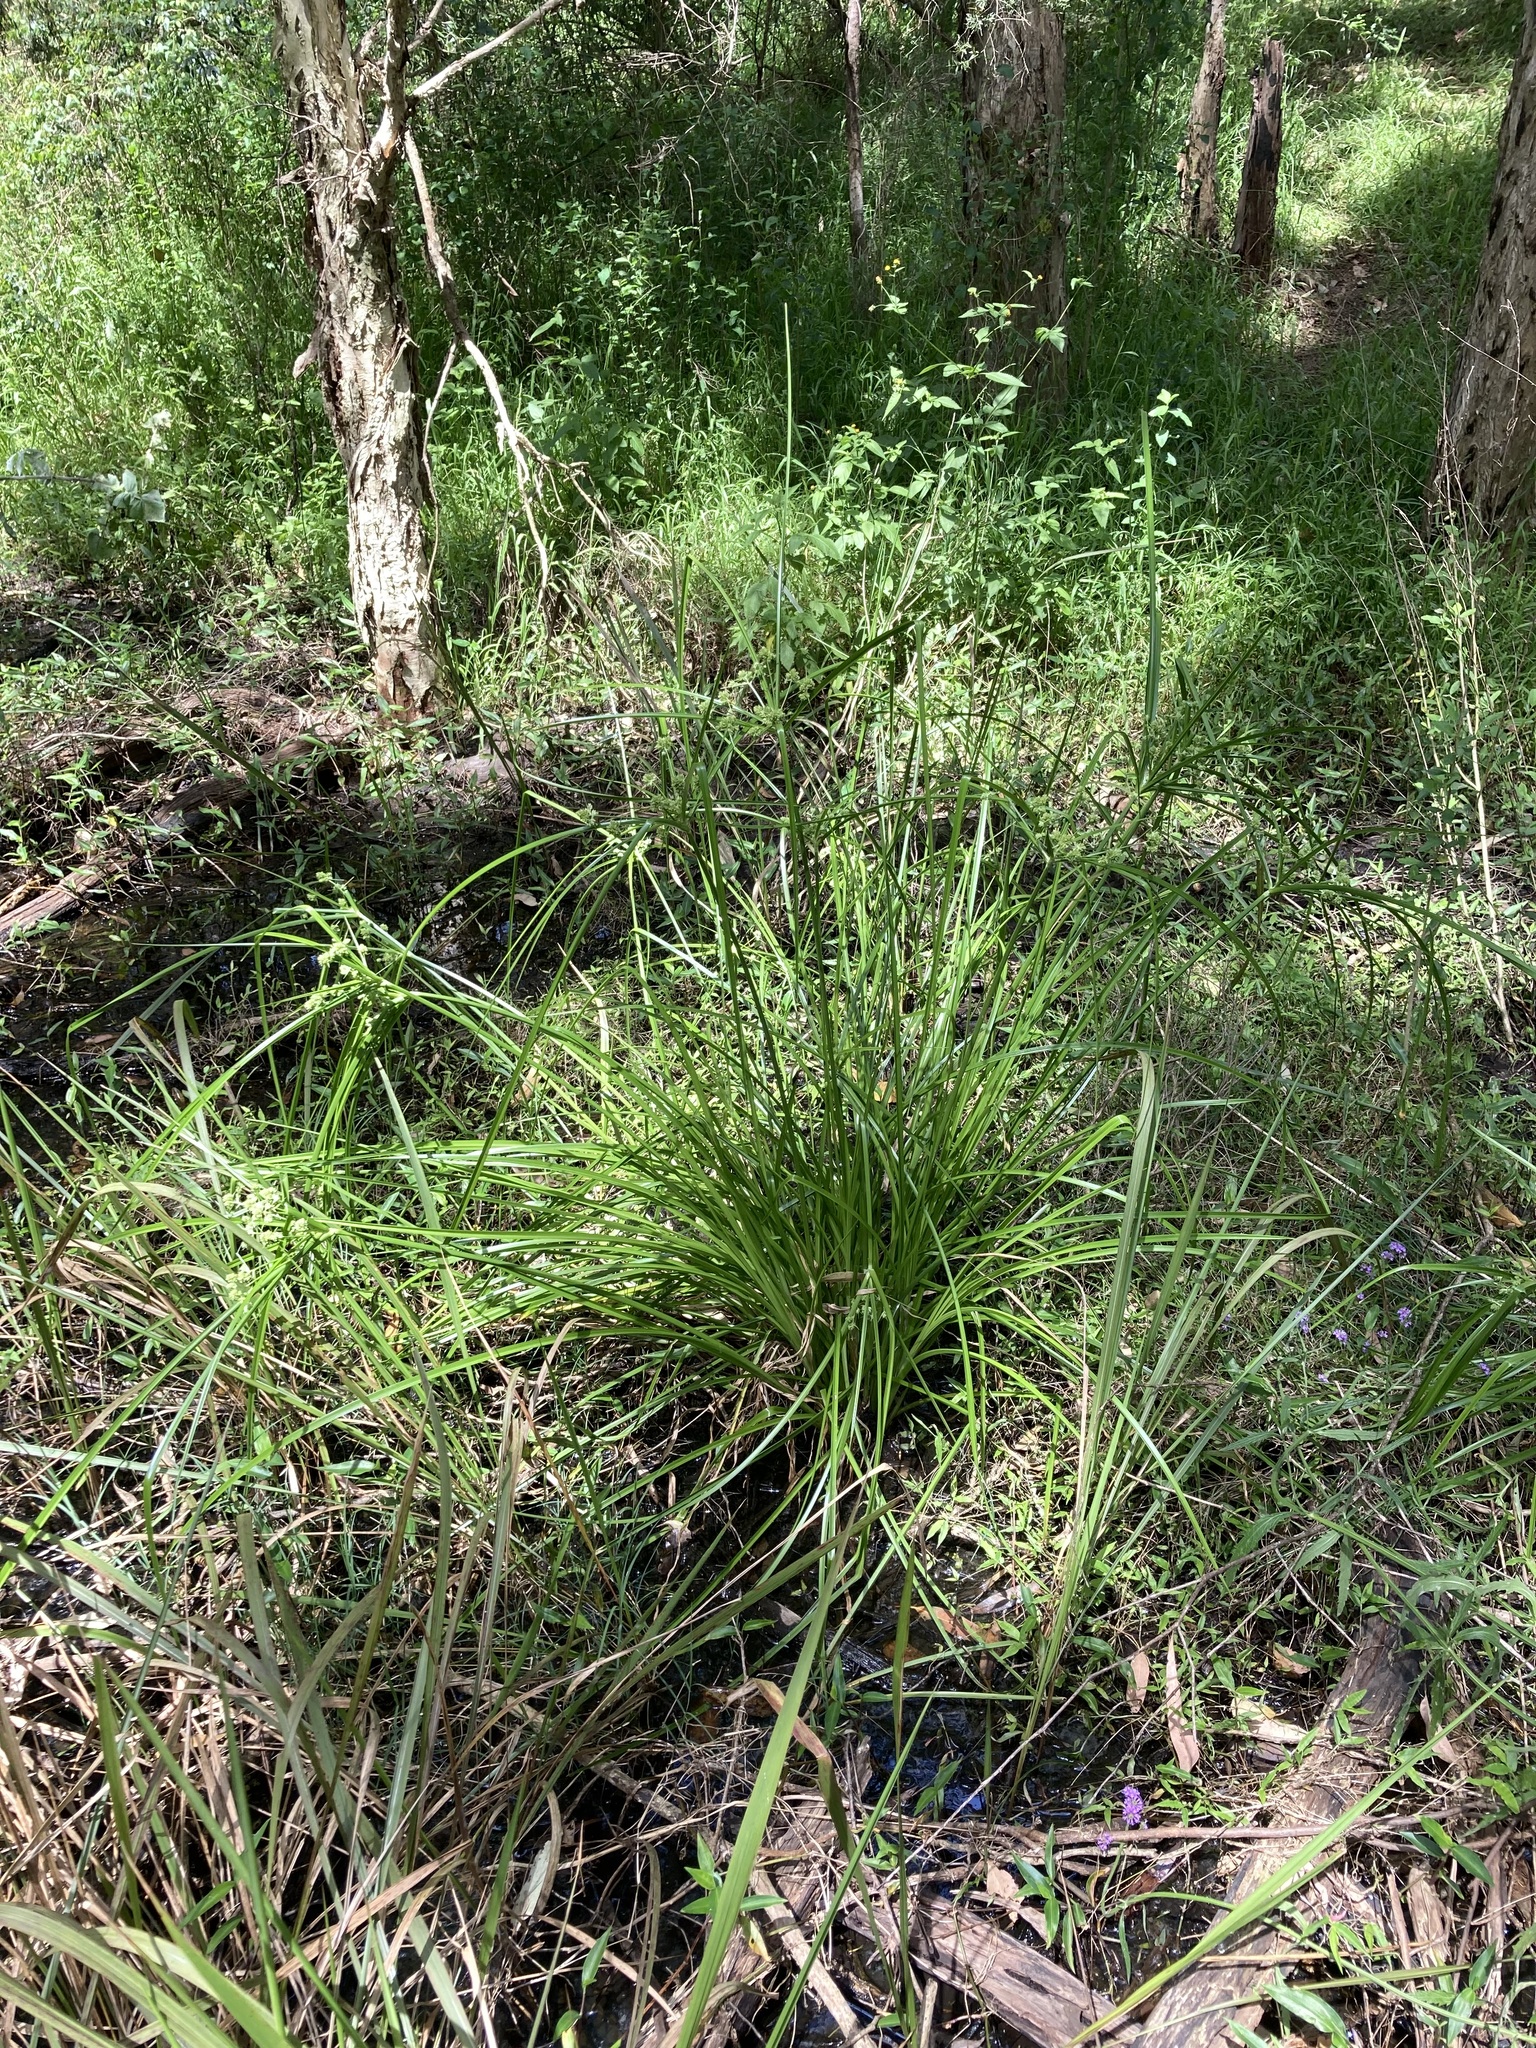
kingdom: Plantae
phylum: Tracheophyta
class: Liliopsida
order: Poales
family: Cyperaceae
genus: Cyperus
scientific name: Cyperus eragrostis
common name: Tall flatsedge
